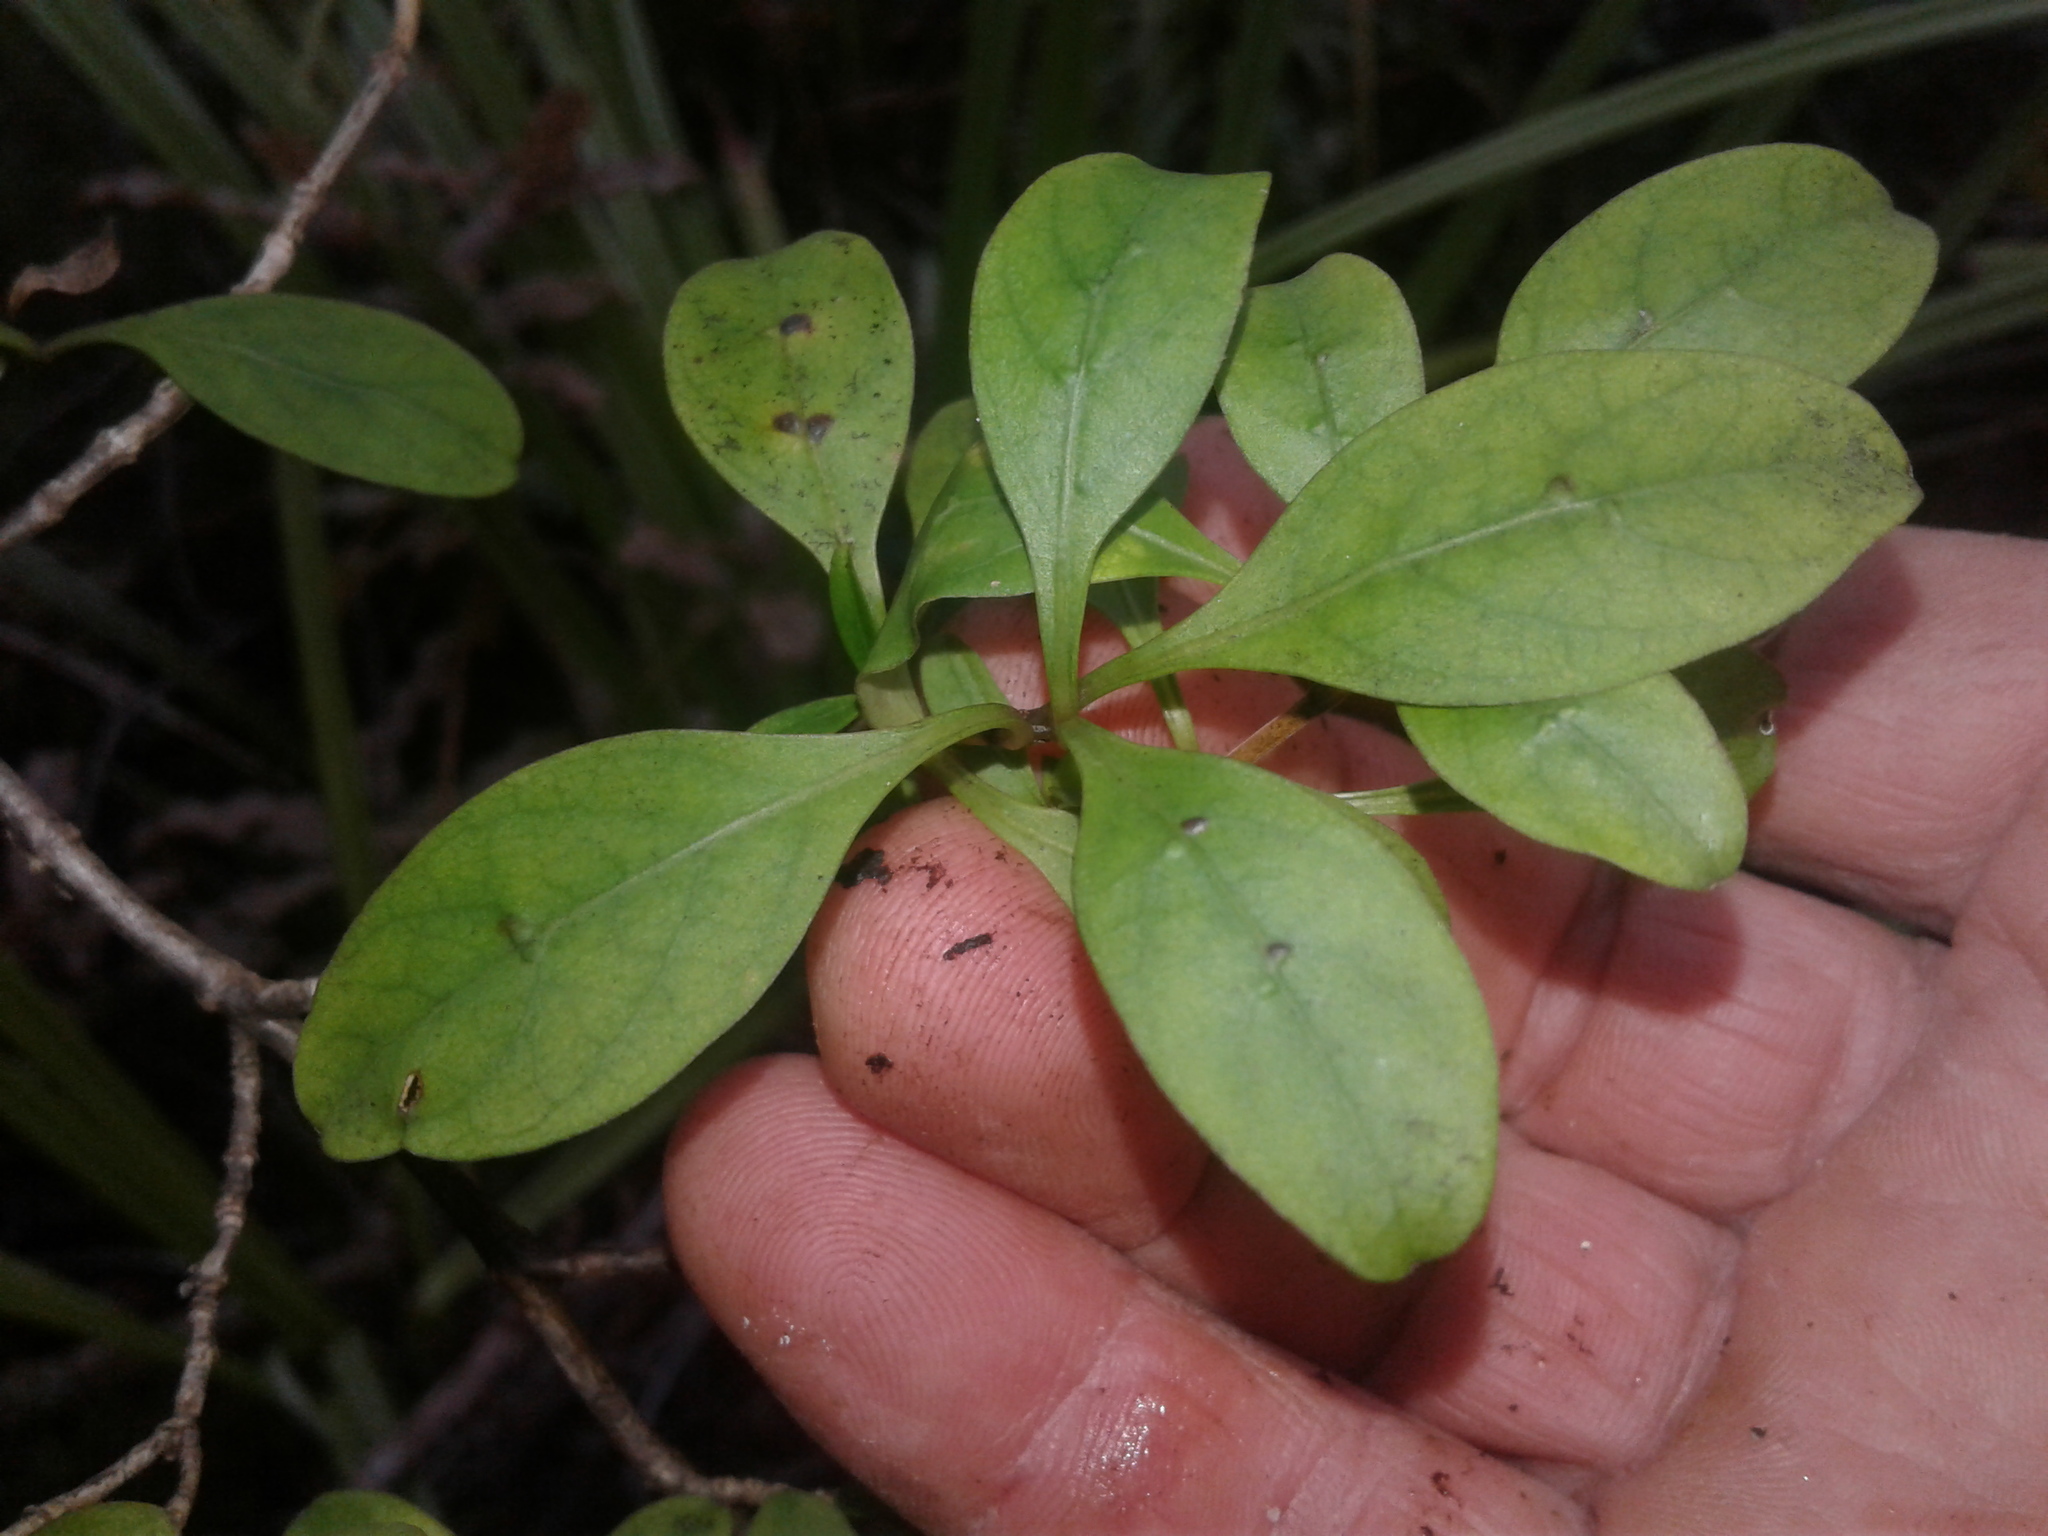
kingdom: Plantae
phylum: Tracheophyta
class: Magnoliopsida
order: Gentianales
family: Rubiaceae
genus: Coprosma
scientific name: Coprosma foetidissima
